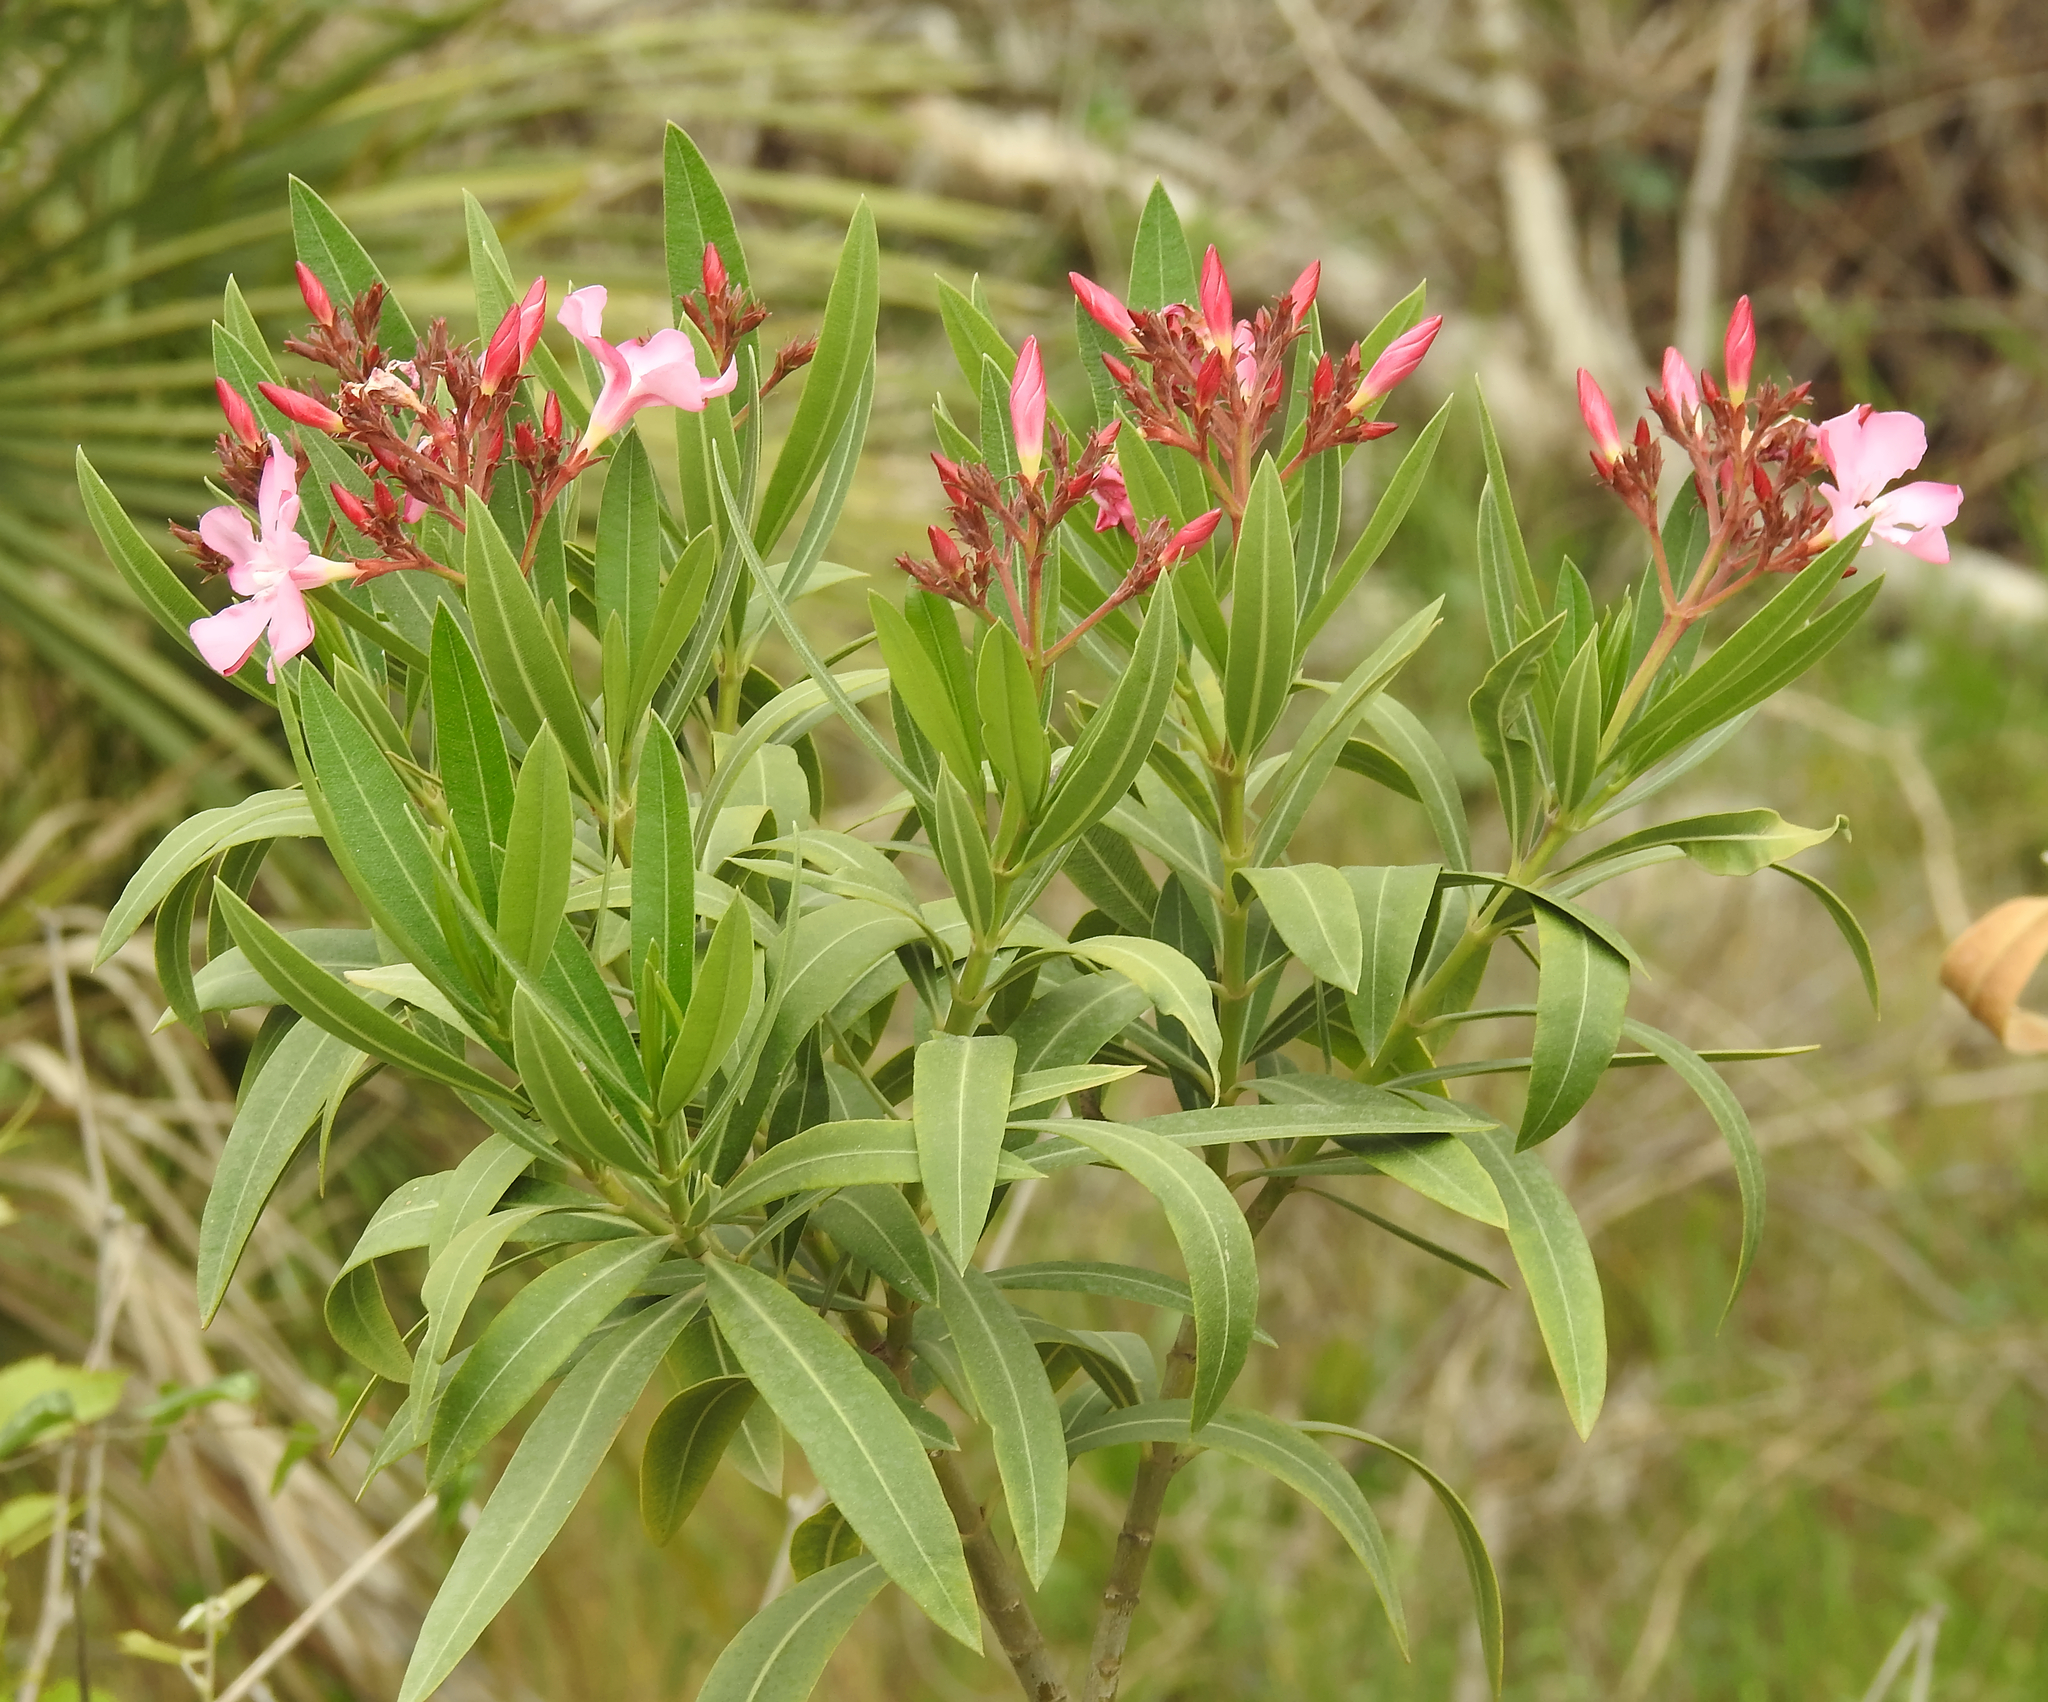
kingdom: Plantae
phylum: Tracheophyta
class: Magnoliopsida
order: Gentianales
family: Apocynaceae
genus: Nerium
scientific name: Nerium oleander
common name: Oleander
